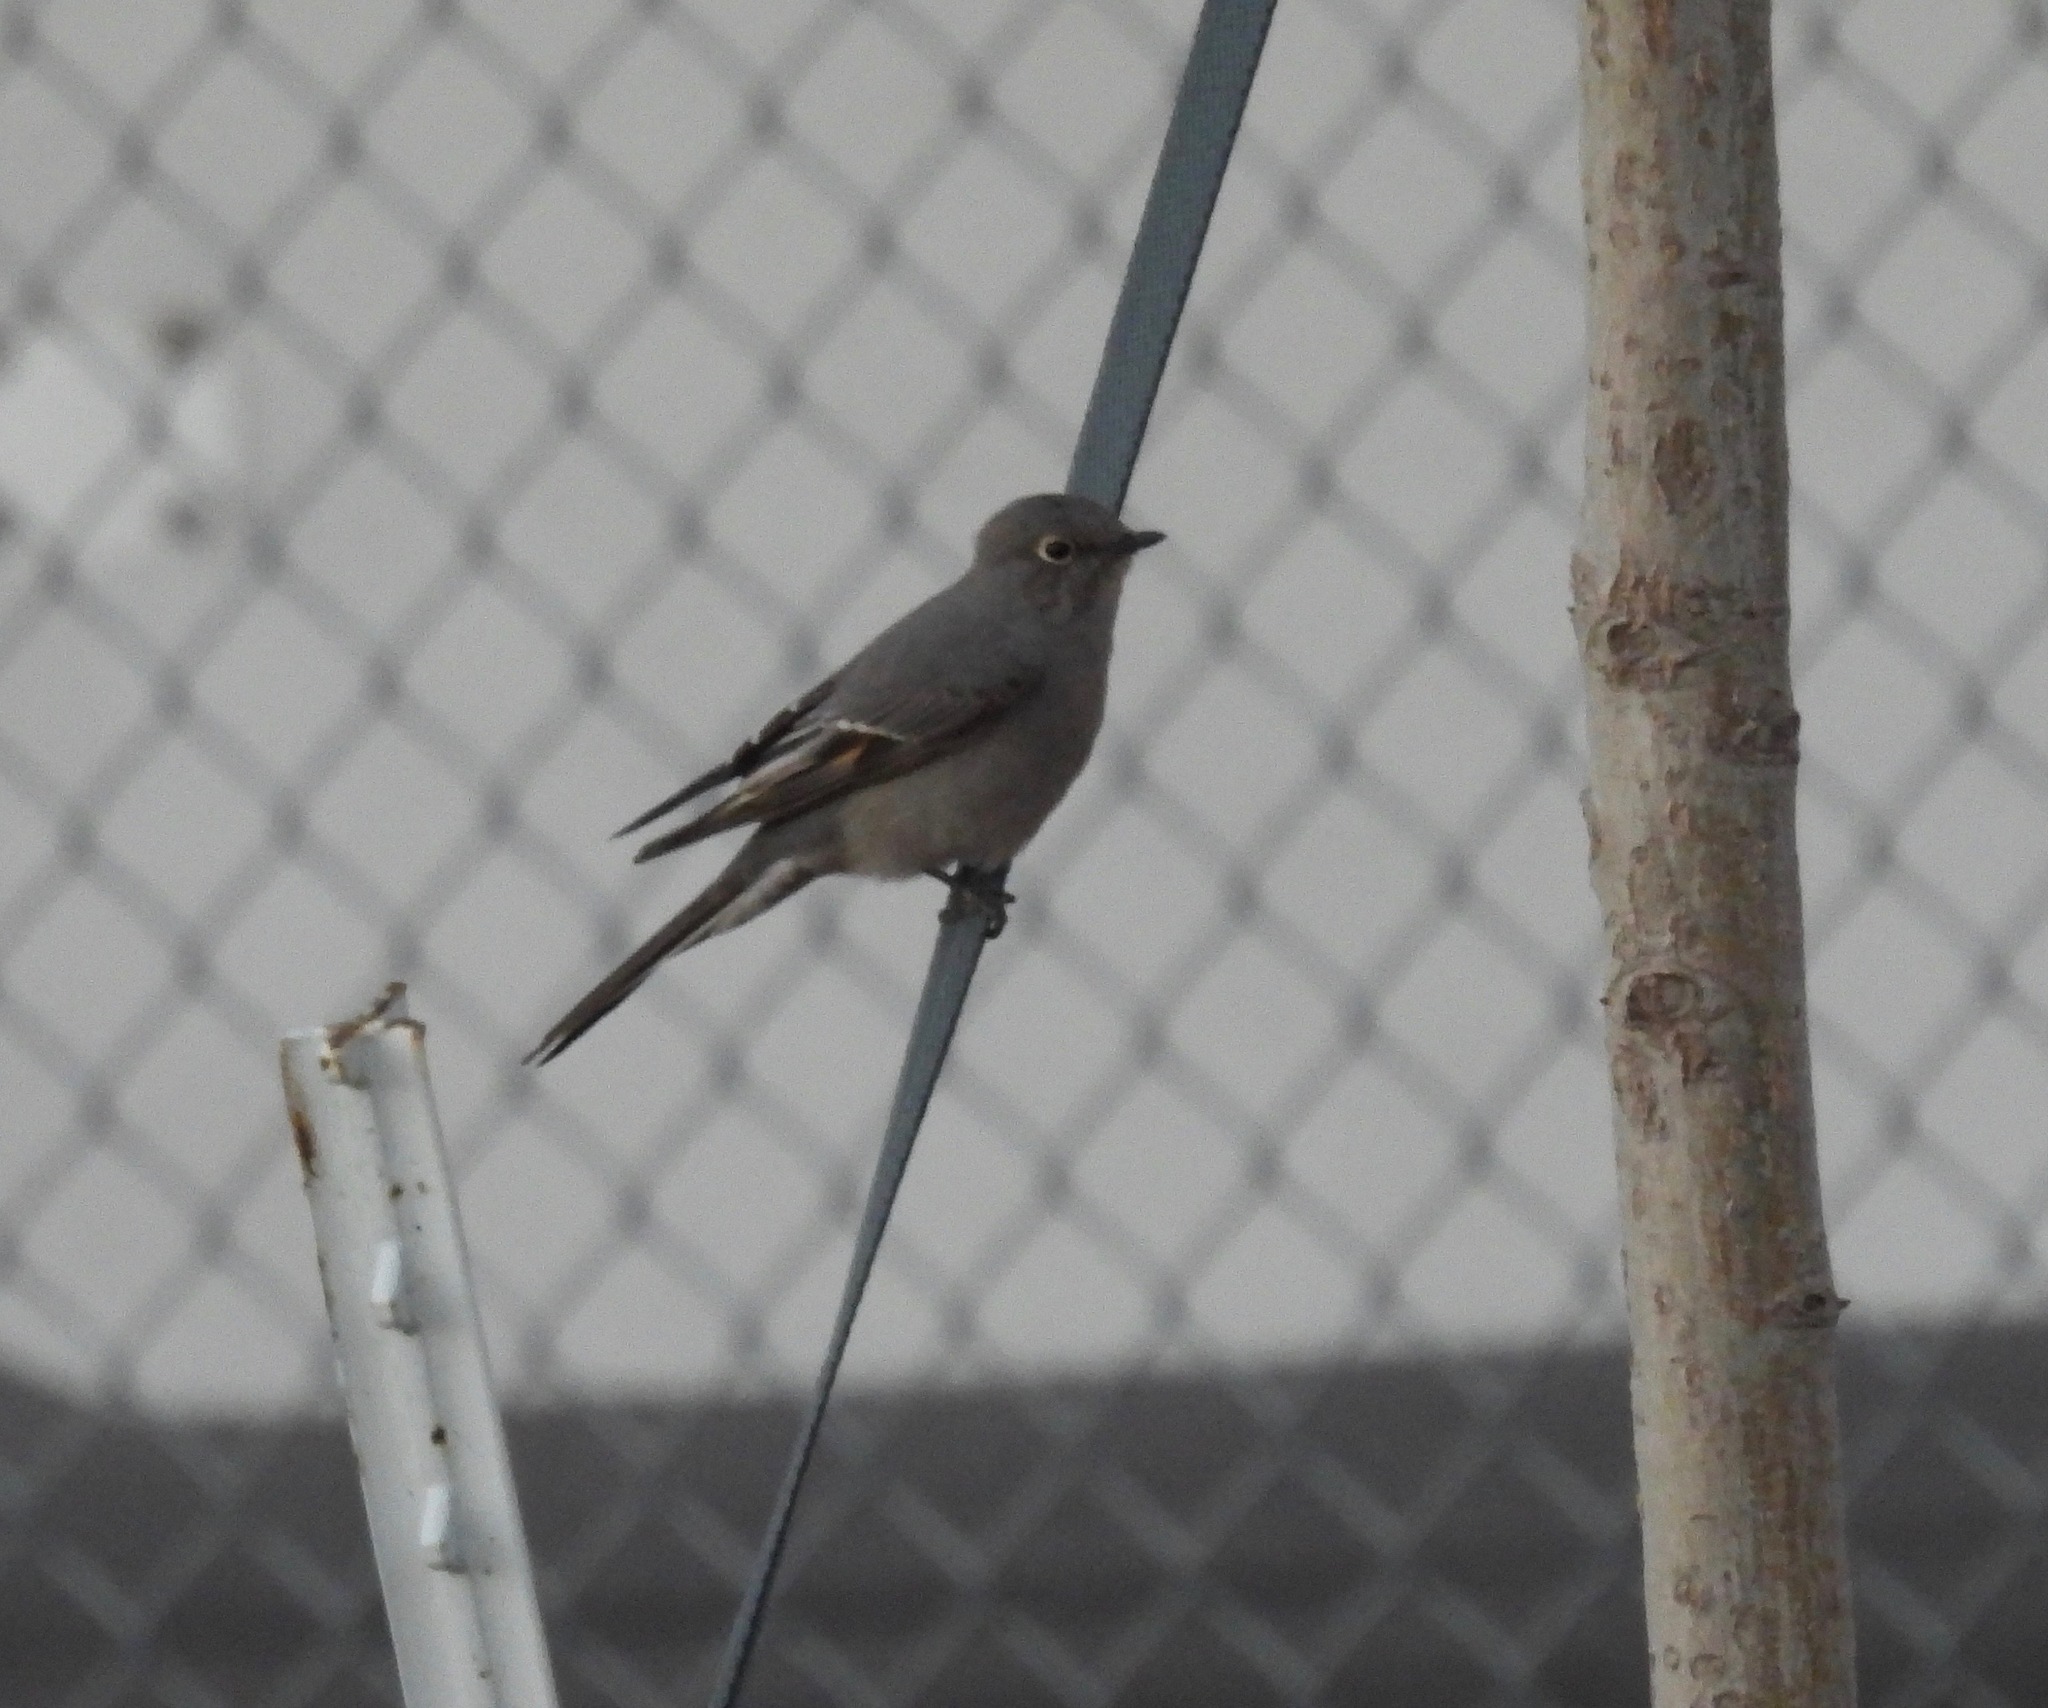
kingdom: Animalia
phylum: Chordata
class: Aves
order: Passeriformes
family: Turdidae
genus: Myadestes
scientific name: Myadestes townsendi
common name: Townsend's solitaire
